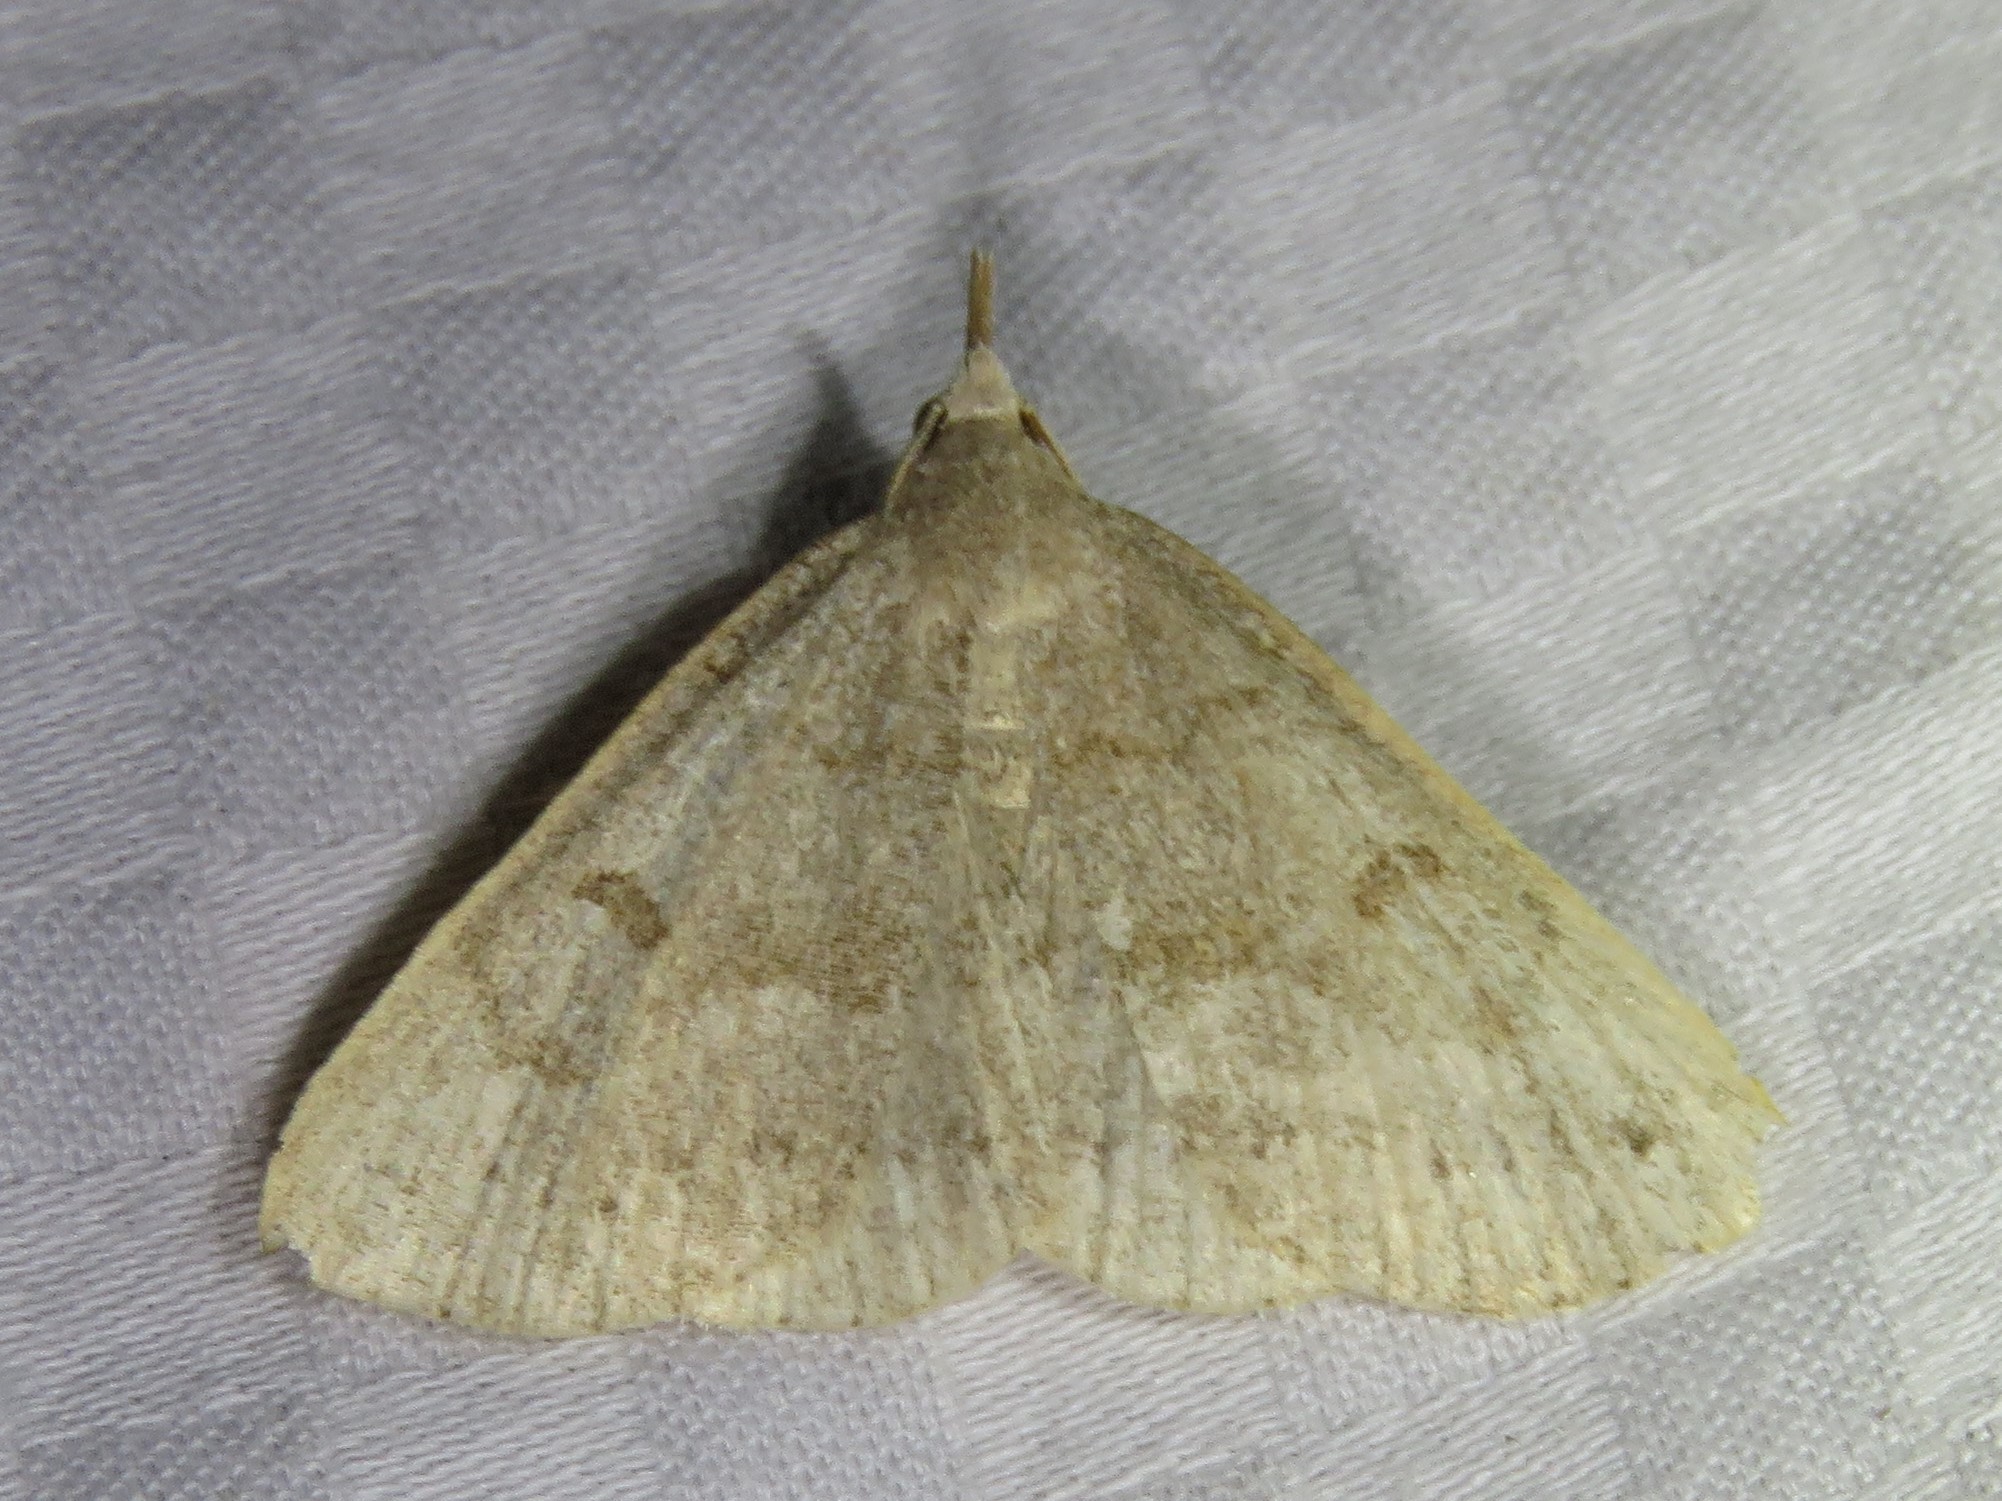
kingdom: Animalia
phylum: Arthropoda
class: Insecta
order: Lepidoptera
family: Erebidae
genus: Macrochilo
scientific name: Macrochilo morbidalis
